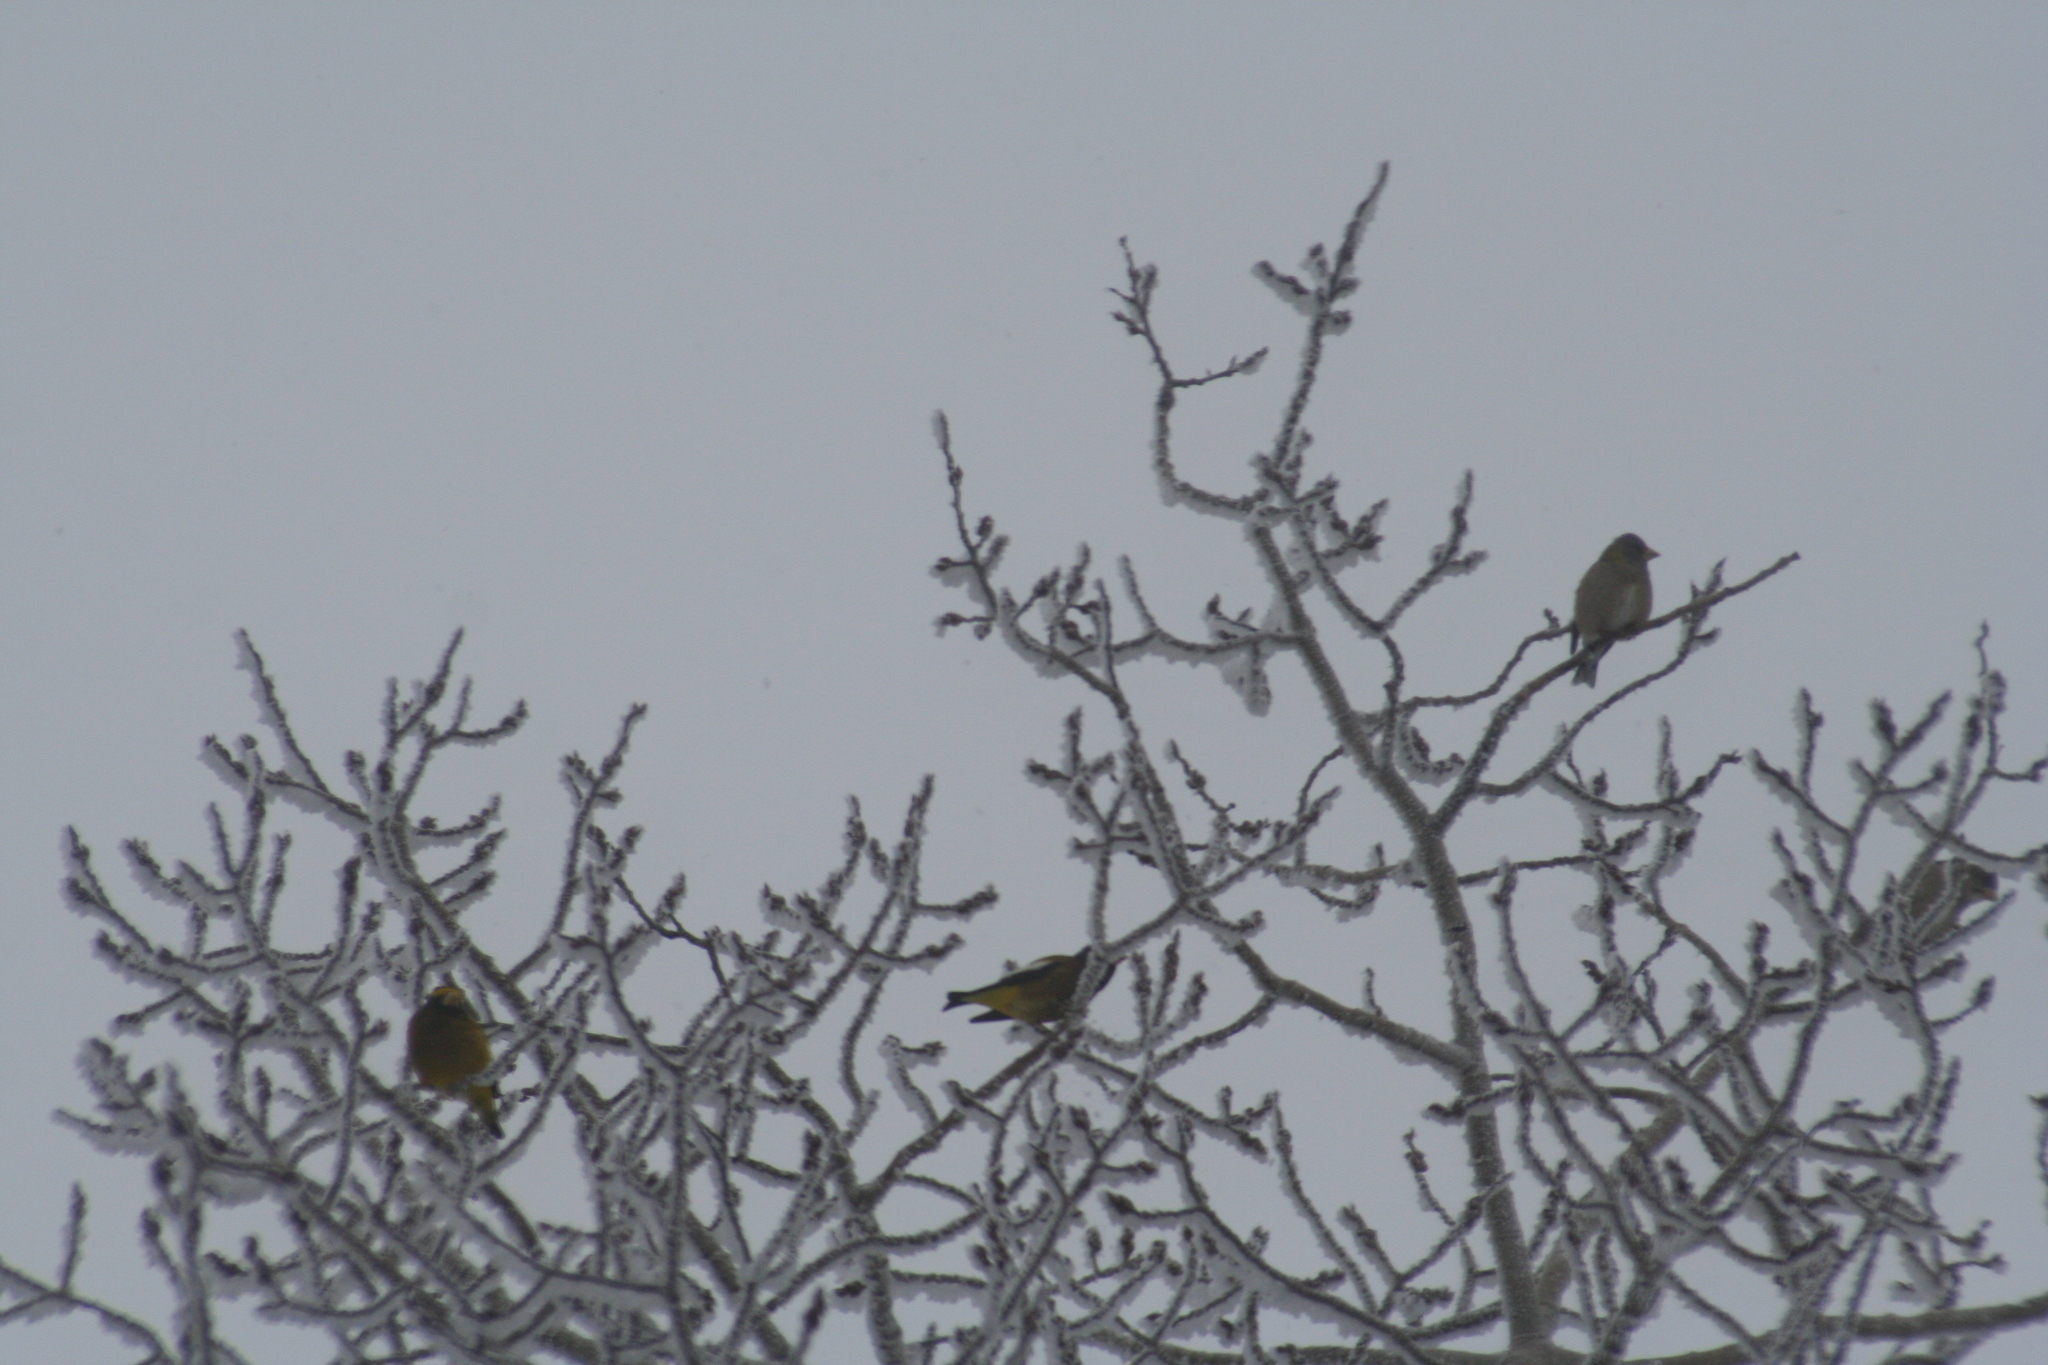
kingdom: Animalia
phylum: Chordata
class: Aves
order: Passeriformes
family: Fringillidae
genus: Hesperiphona
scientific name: Hesperiphona vespertina
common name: Evening grosbeak
